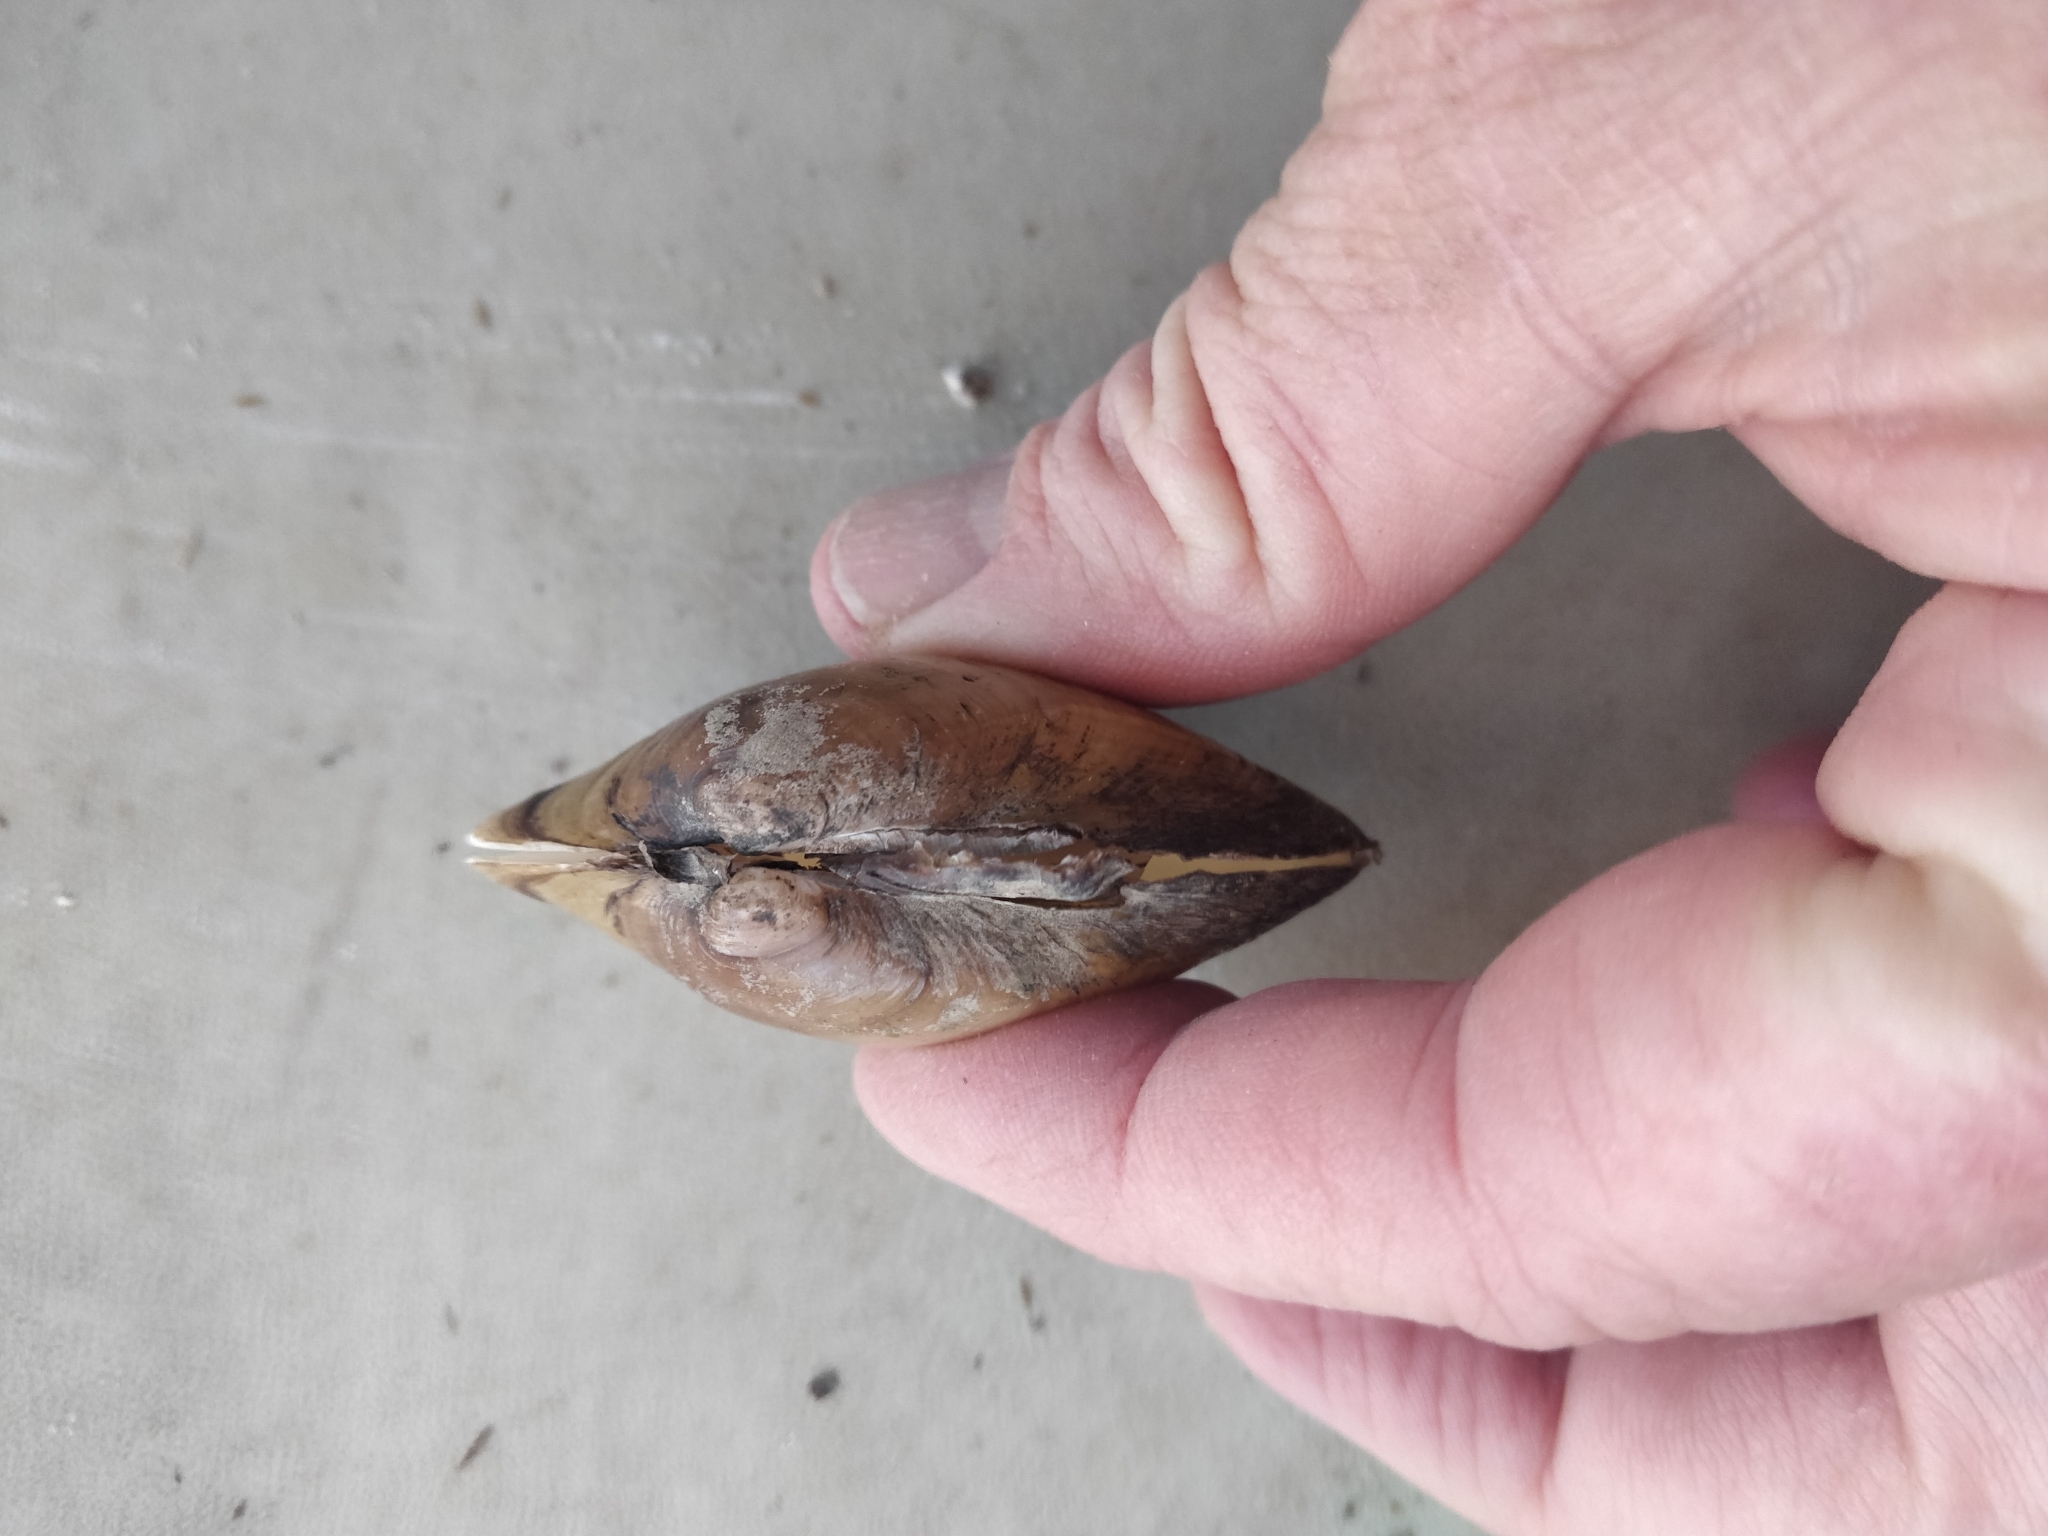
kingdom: Animalia
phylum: Mollusca
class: Bivalvia
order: Unionida
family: Unionidae
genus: Lampsilis
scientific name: Lampsilis cardium
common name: Plain pocketbook
